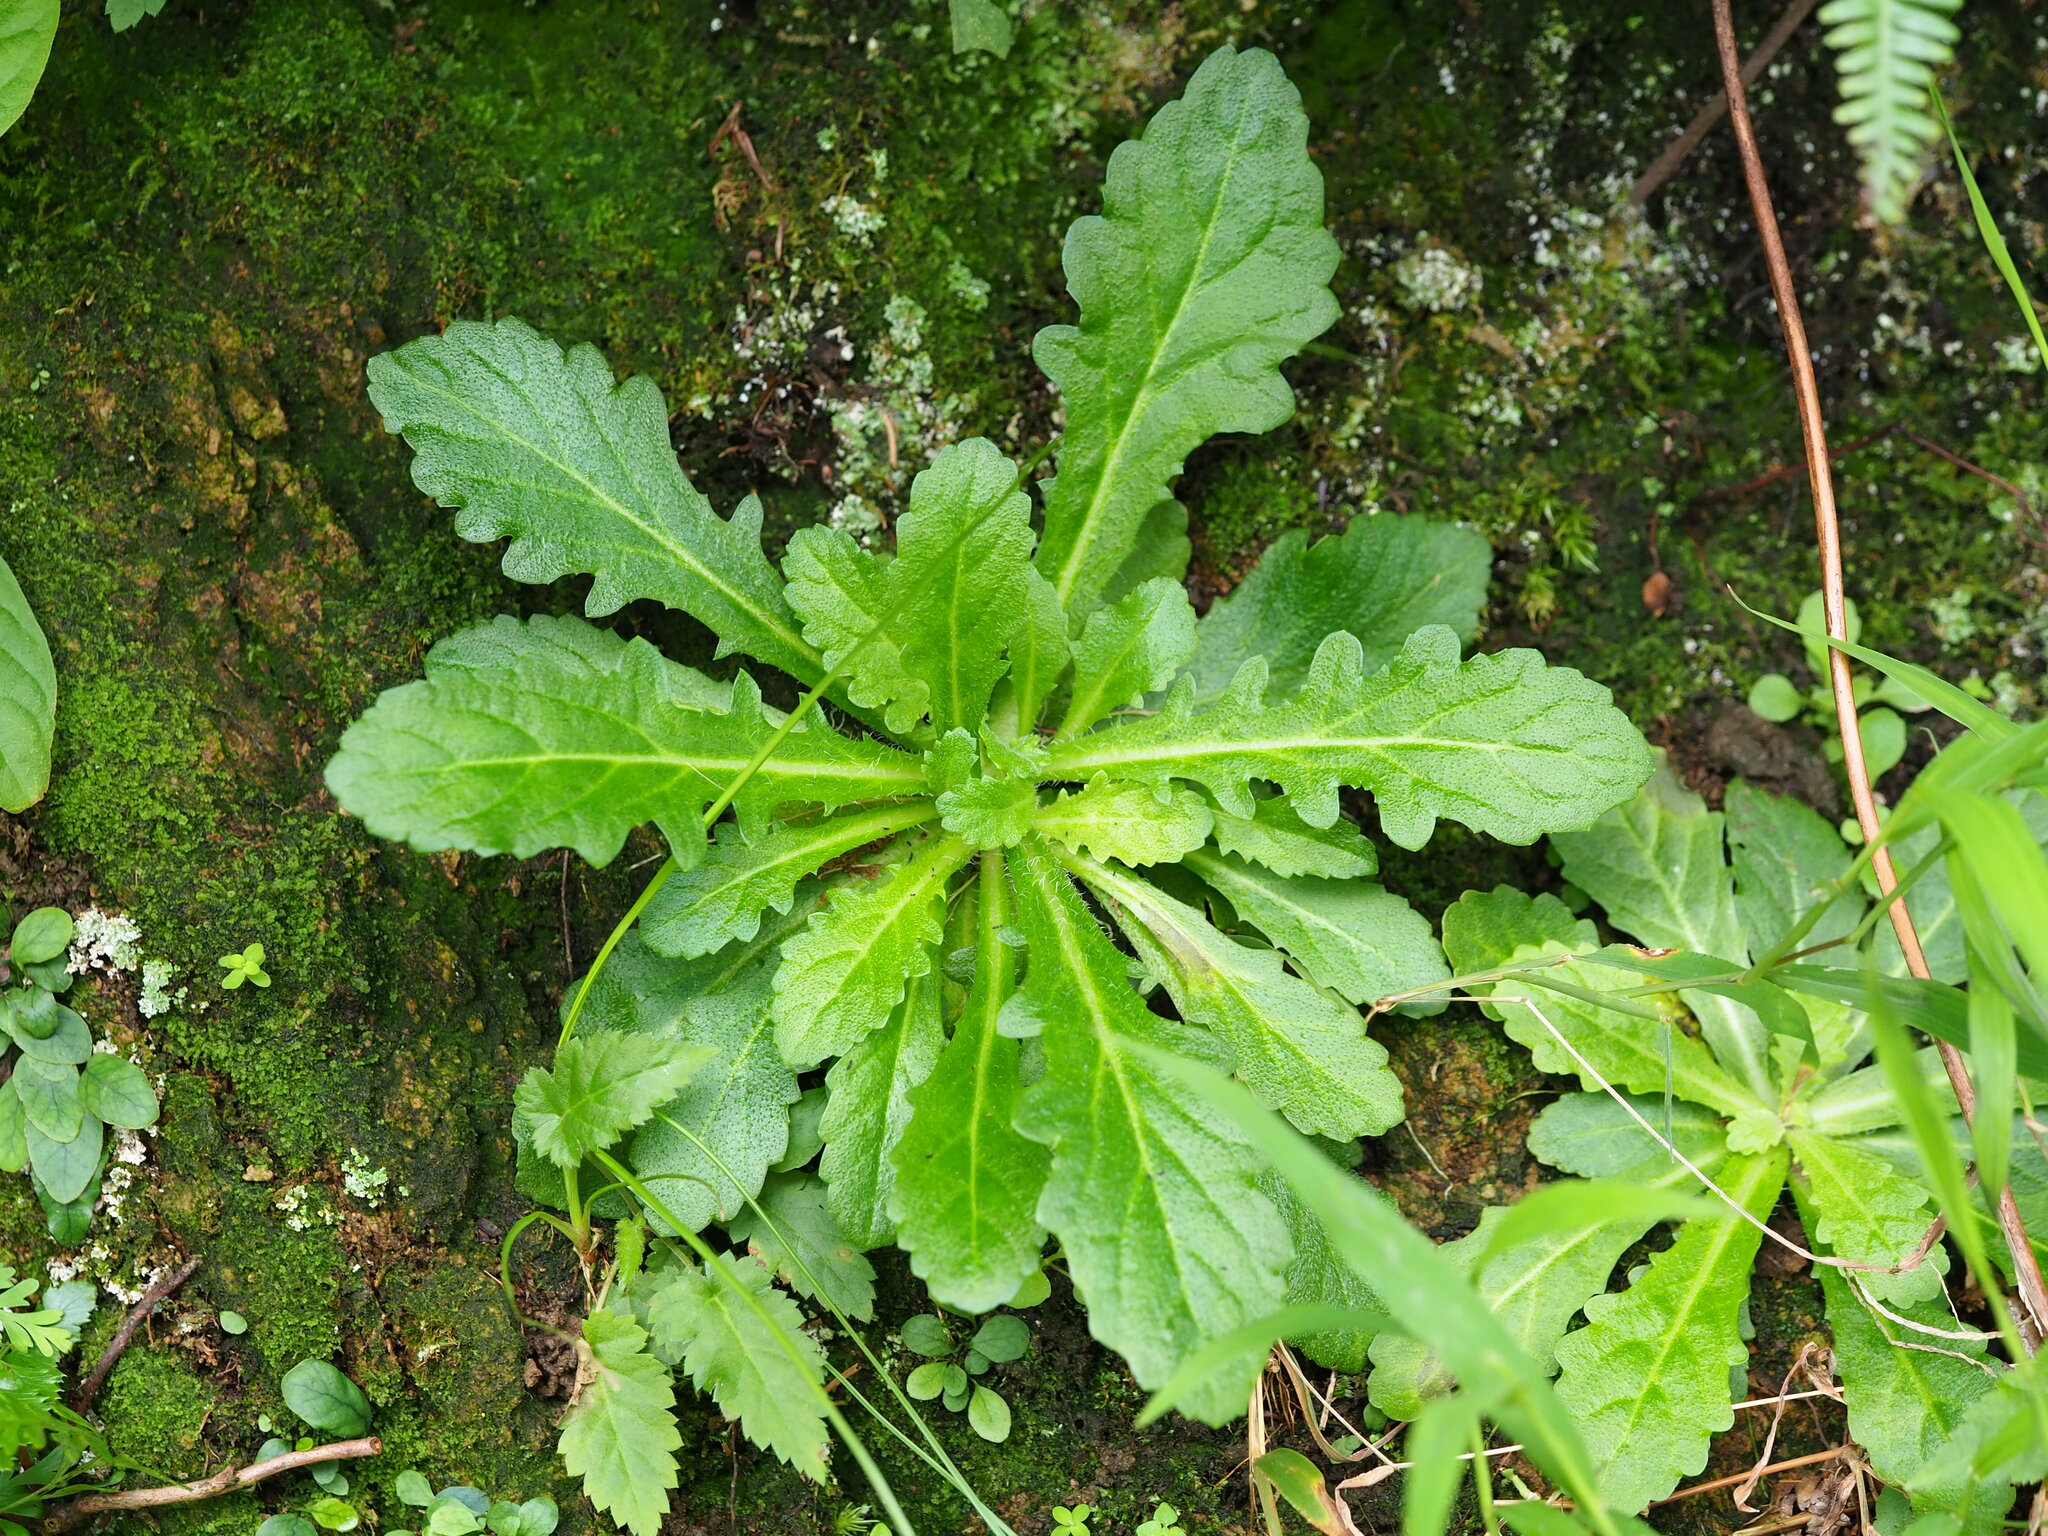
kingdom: Plantae
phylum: Tracheophyta
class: Magnoliopsida
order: Lamiales
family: Mazaceae
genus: Mazus
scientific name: Mazus fauriei
